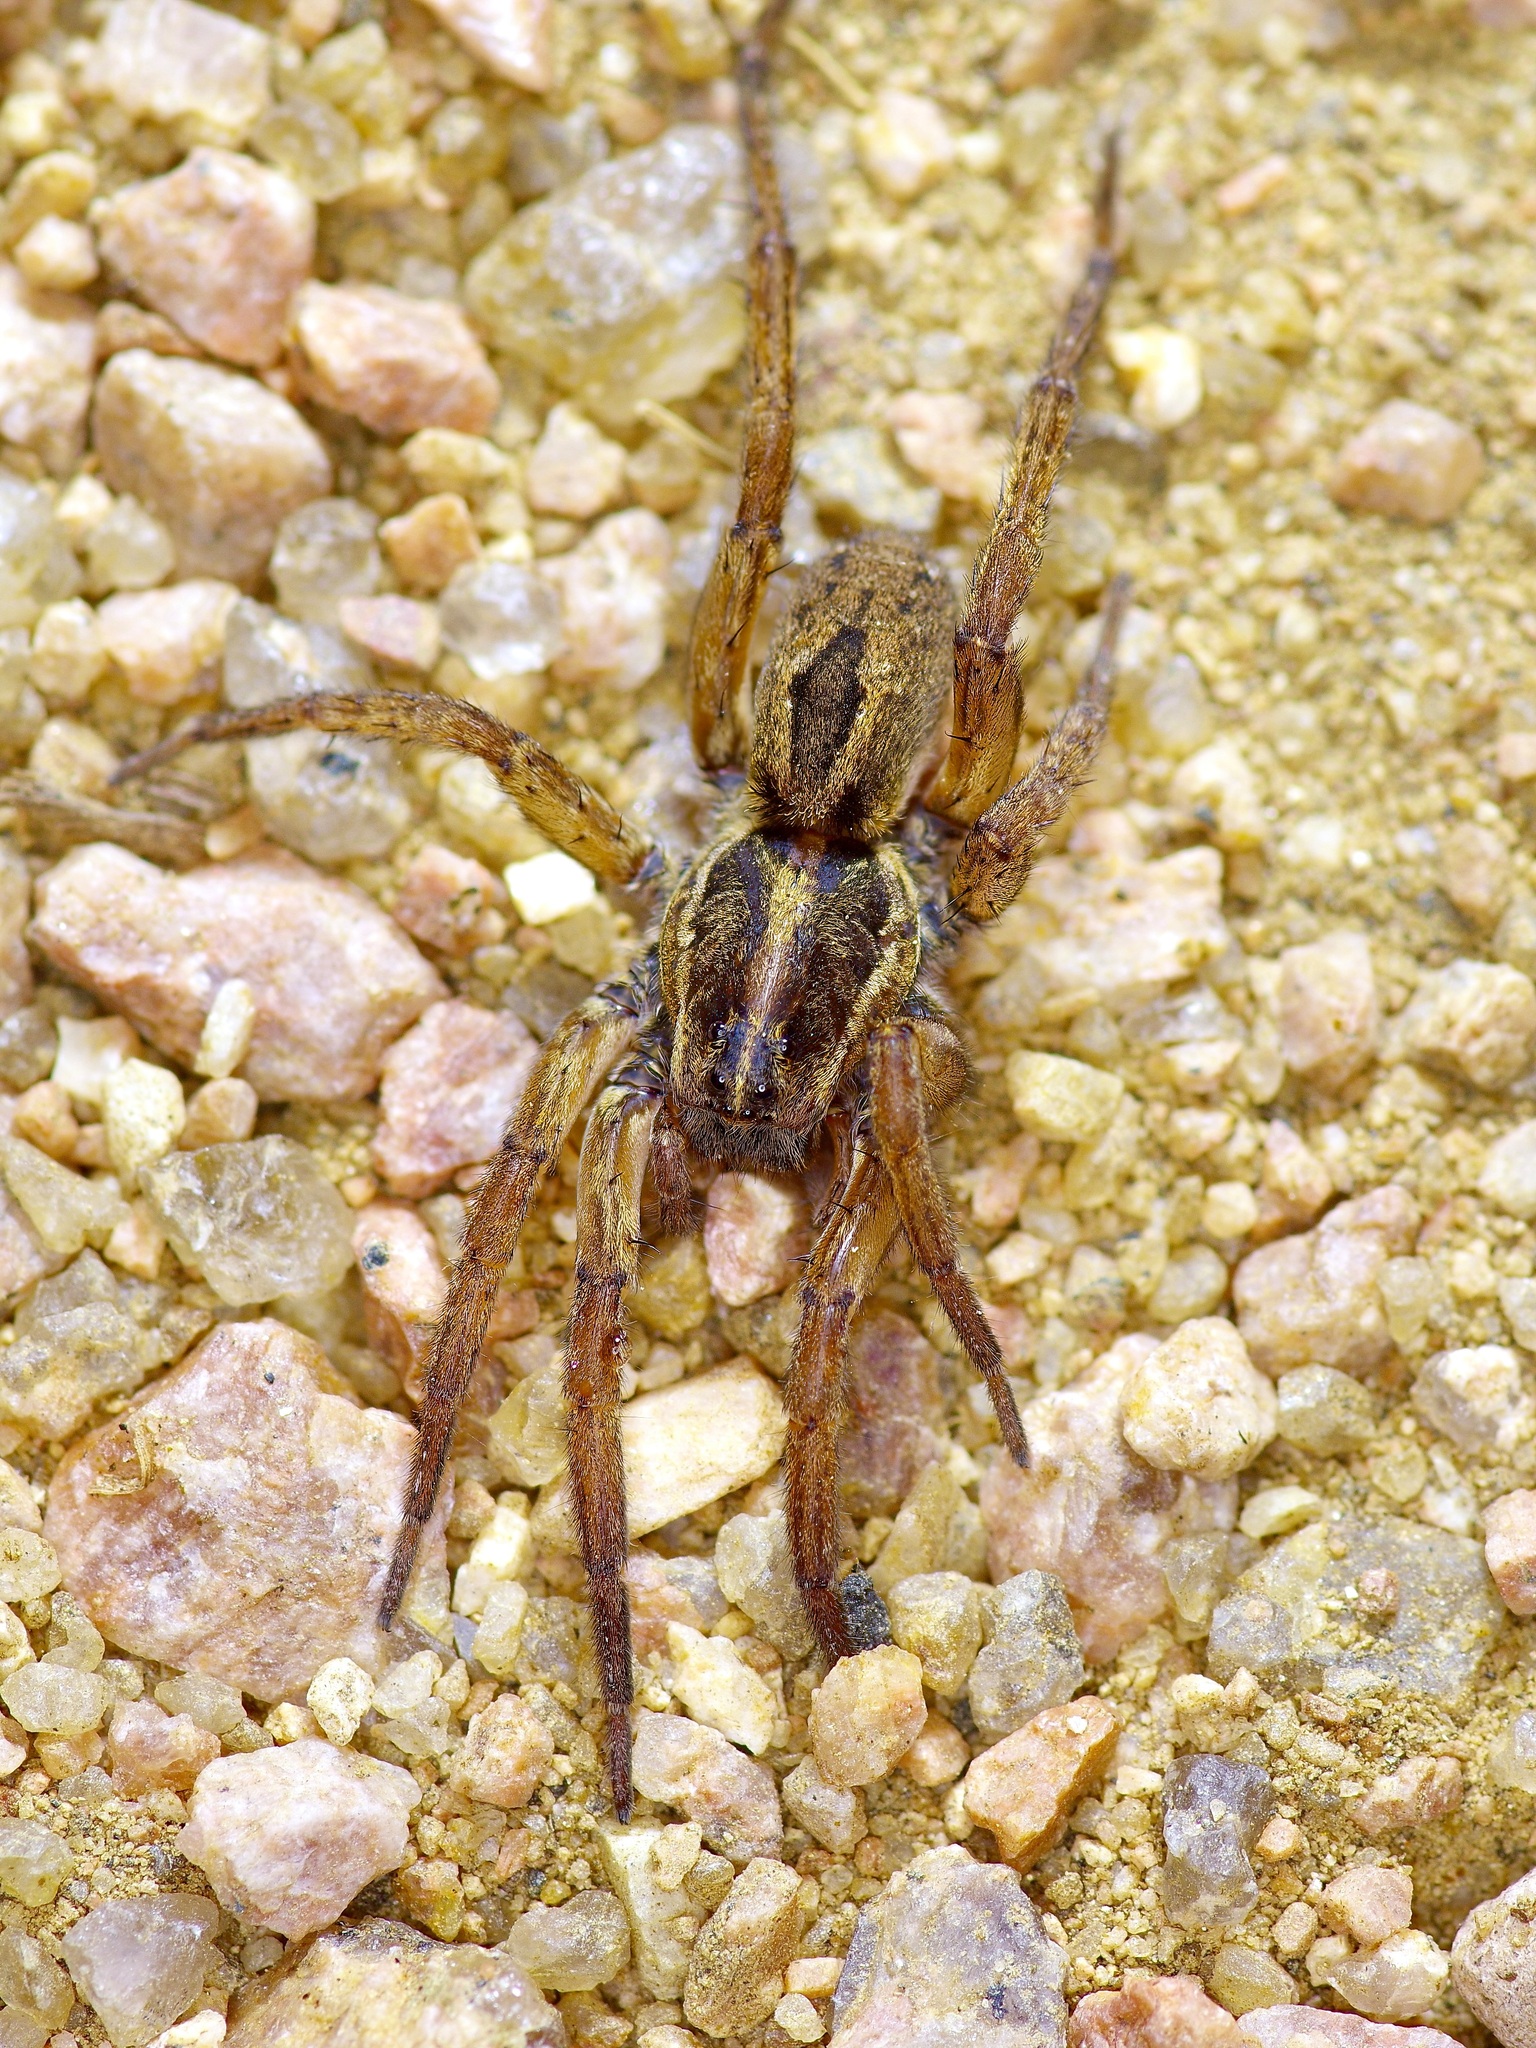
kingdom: Animalia
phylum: Arthropoda
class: Arachnida
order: Araneae
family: Lycosidae
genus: Tigrosa
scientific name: Tigrosa annexa
